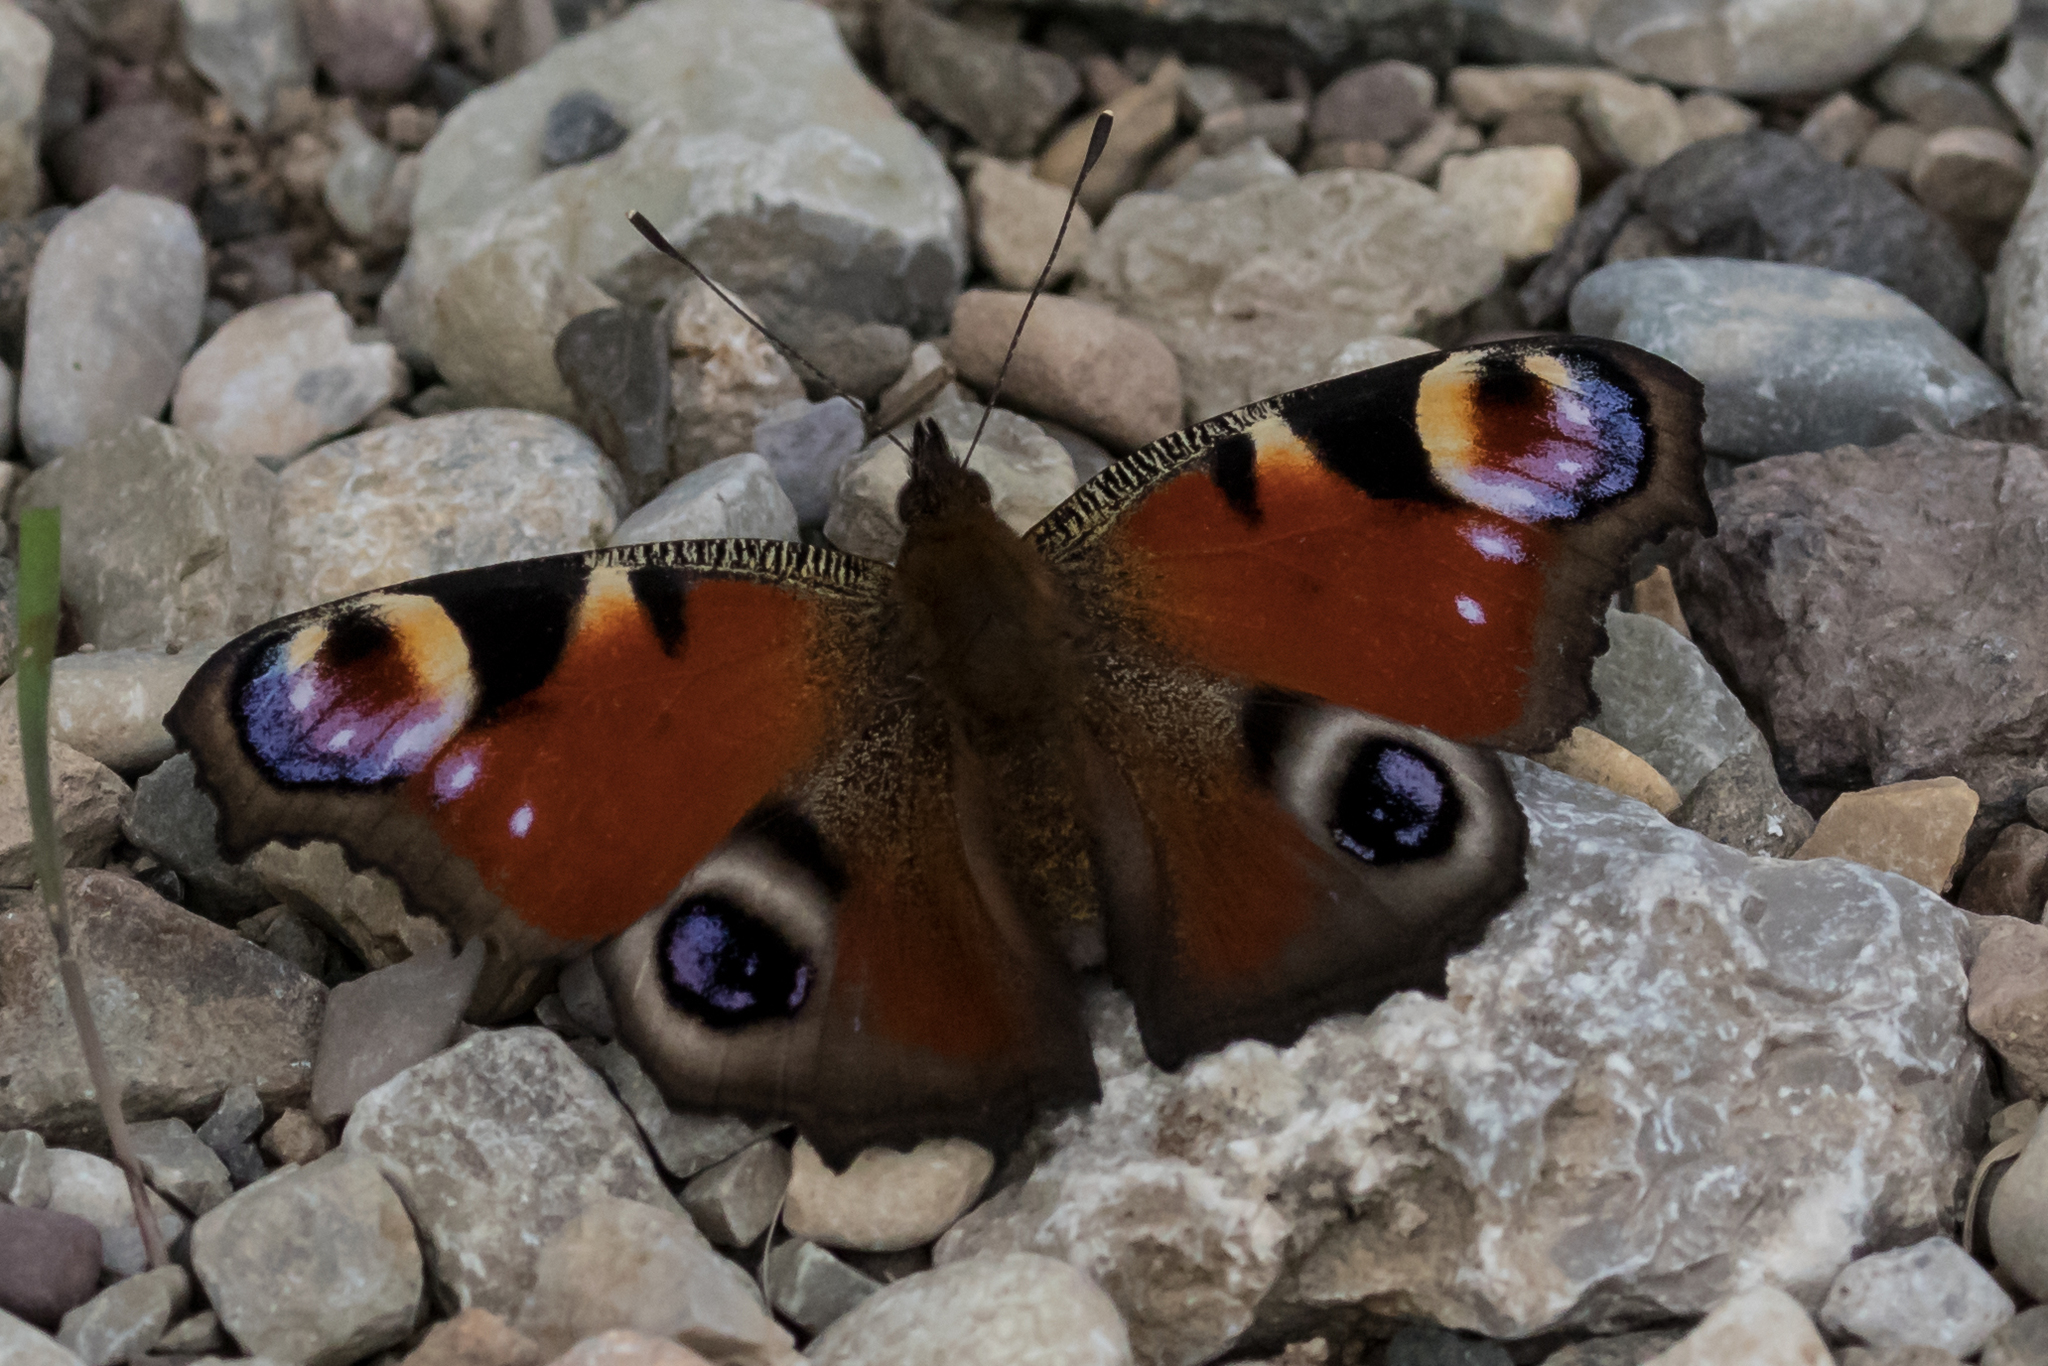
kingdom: Animalia
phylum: Arthropoda
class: Insecta
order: Lepidoptera
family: Nymphalidae
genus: Aglais
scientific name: Aglais io
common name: Peacock
